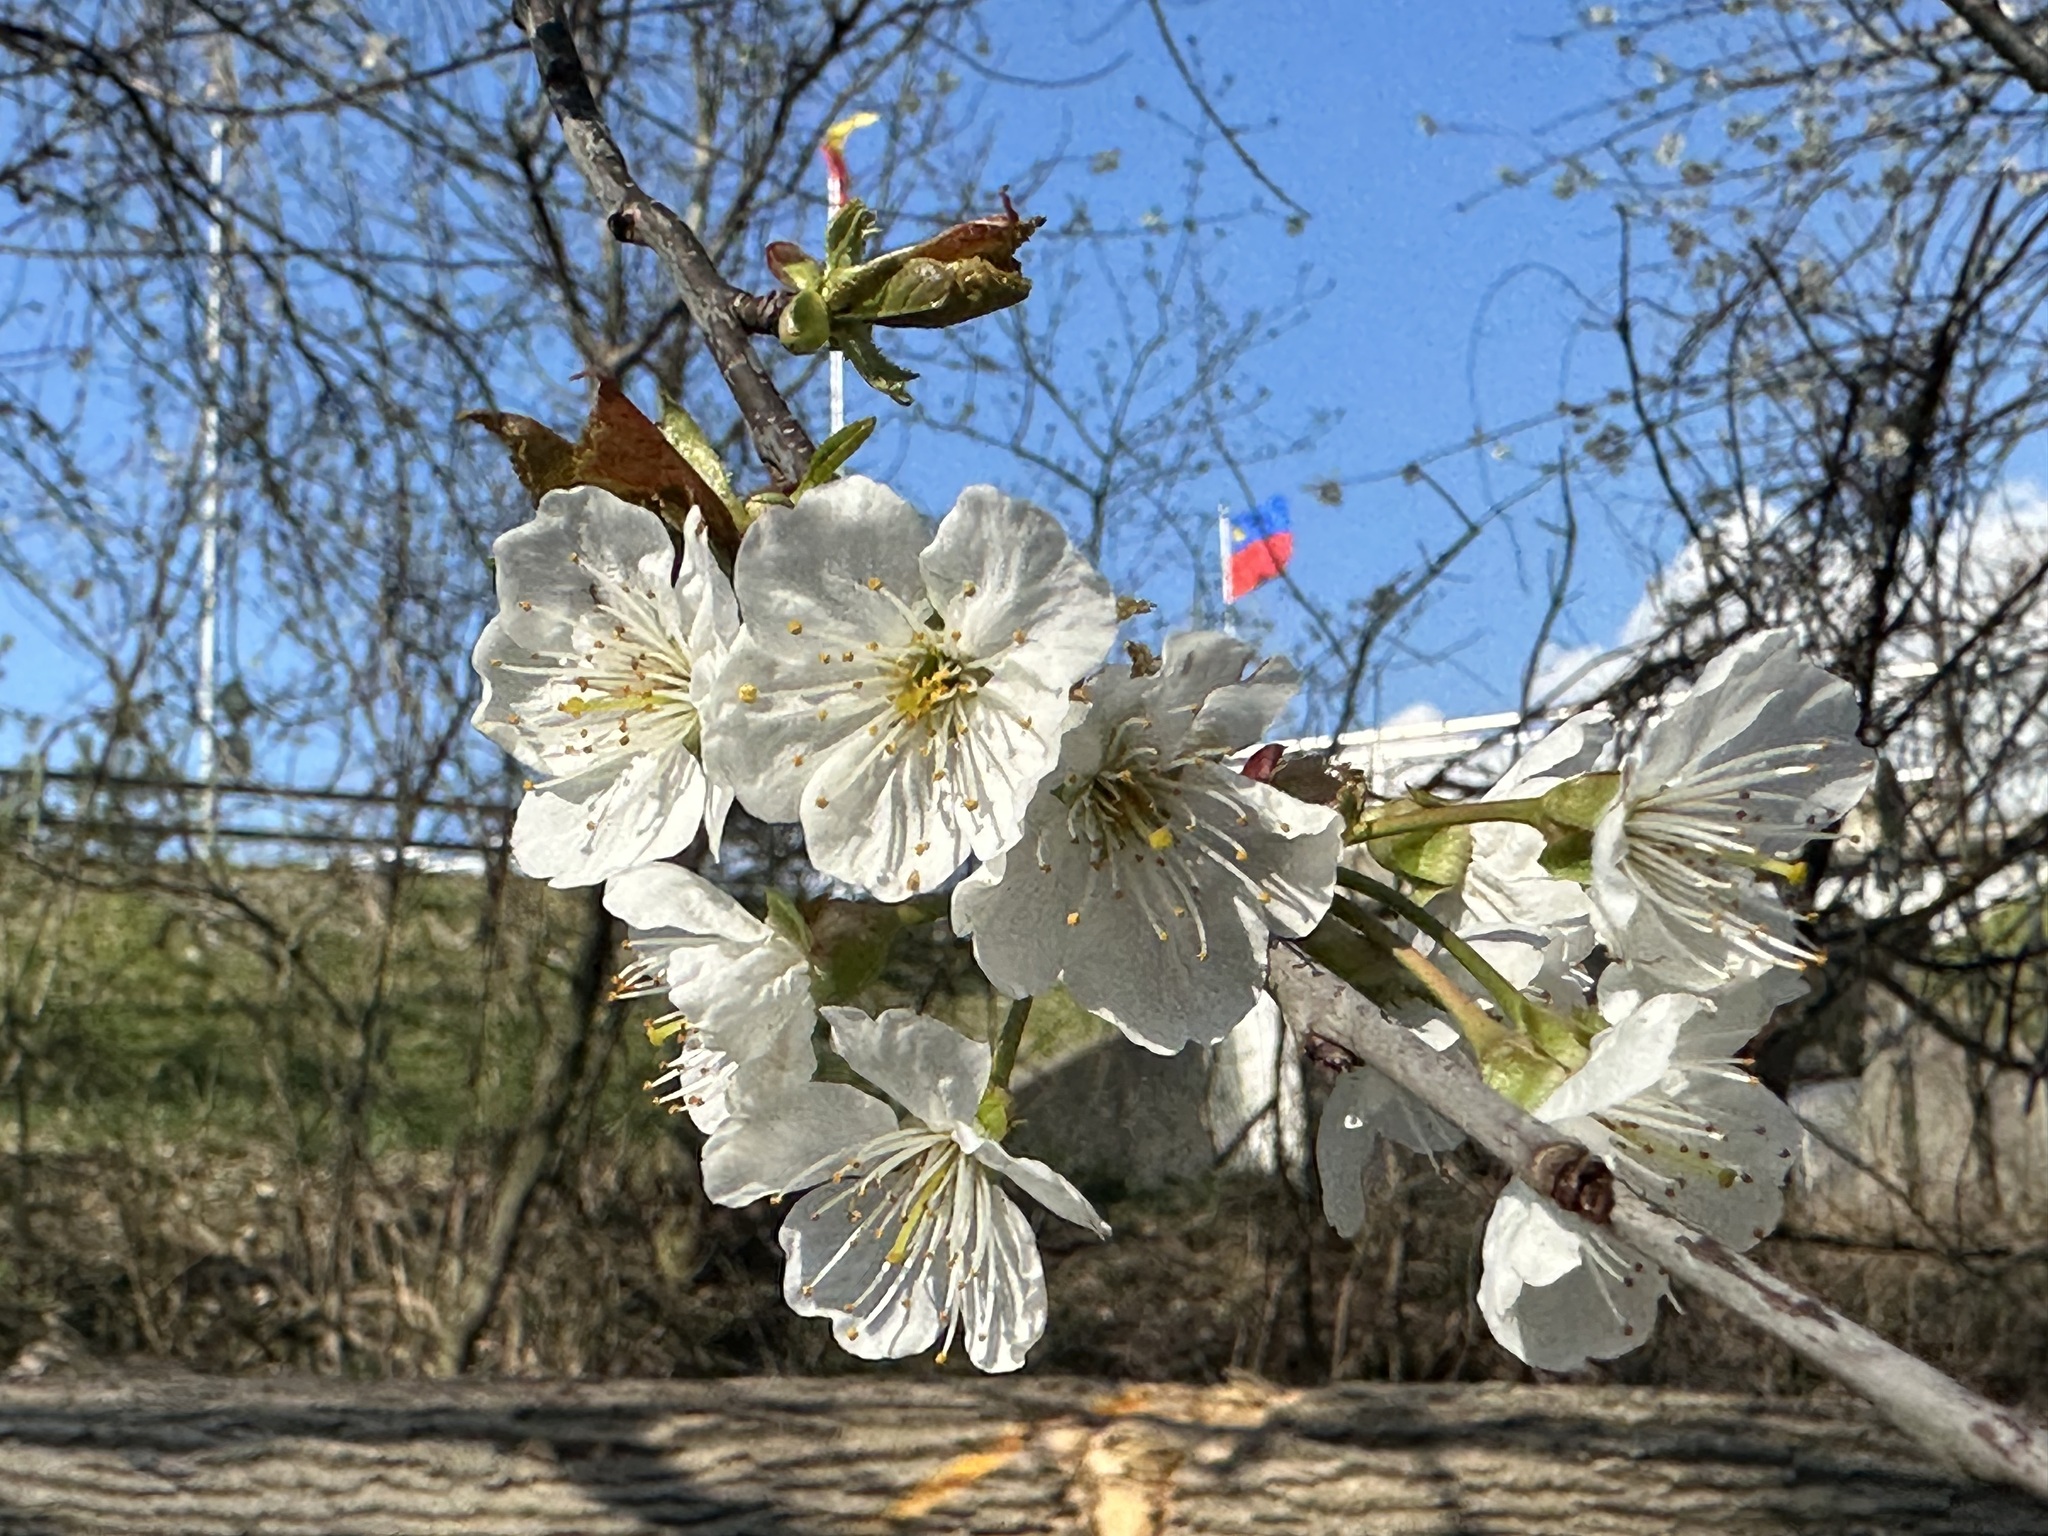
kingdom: Plantae
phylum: Tracheophyta
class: Magnoliopsida
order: Rosales
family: Rosaceae
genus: Prunus
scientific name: Prunus avium
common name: Sweet cherry
